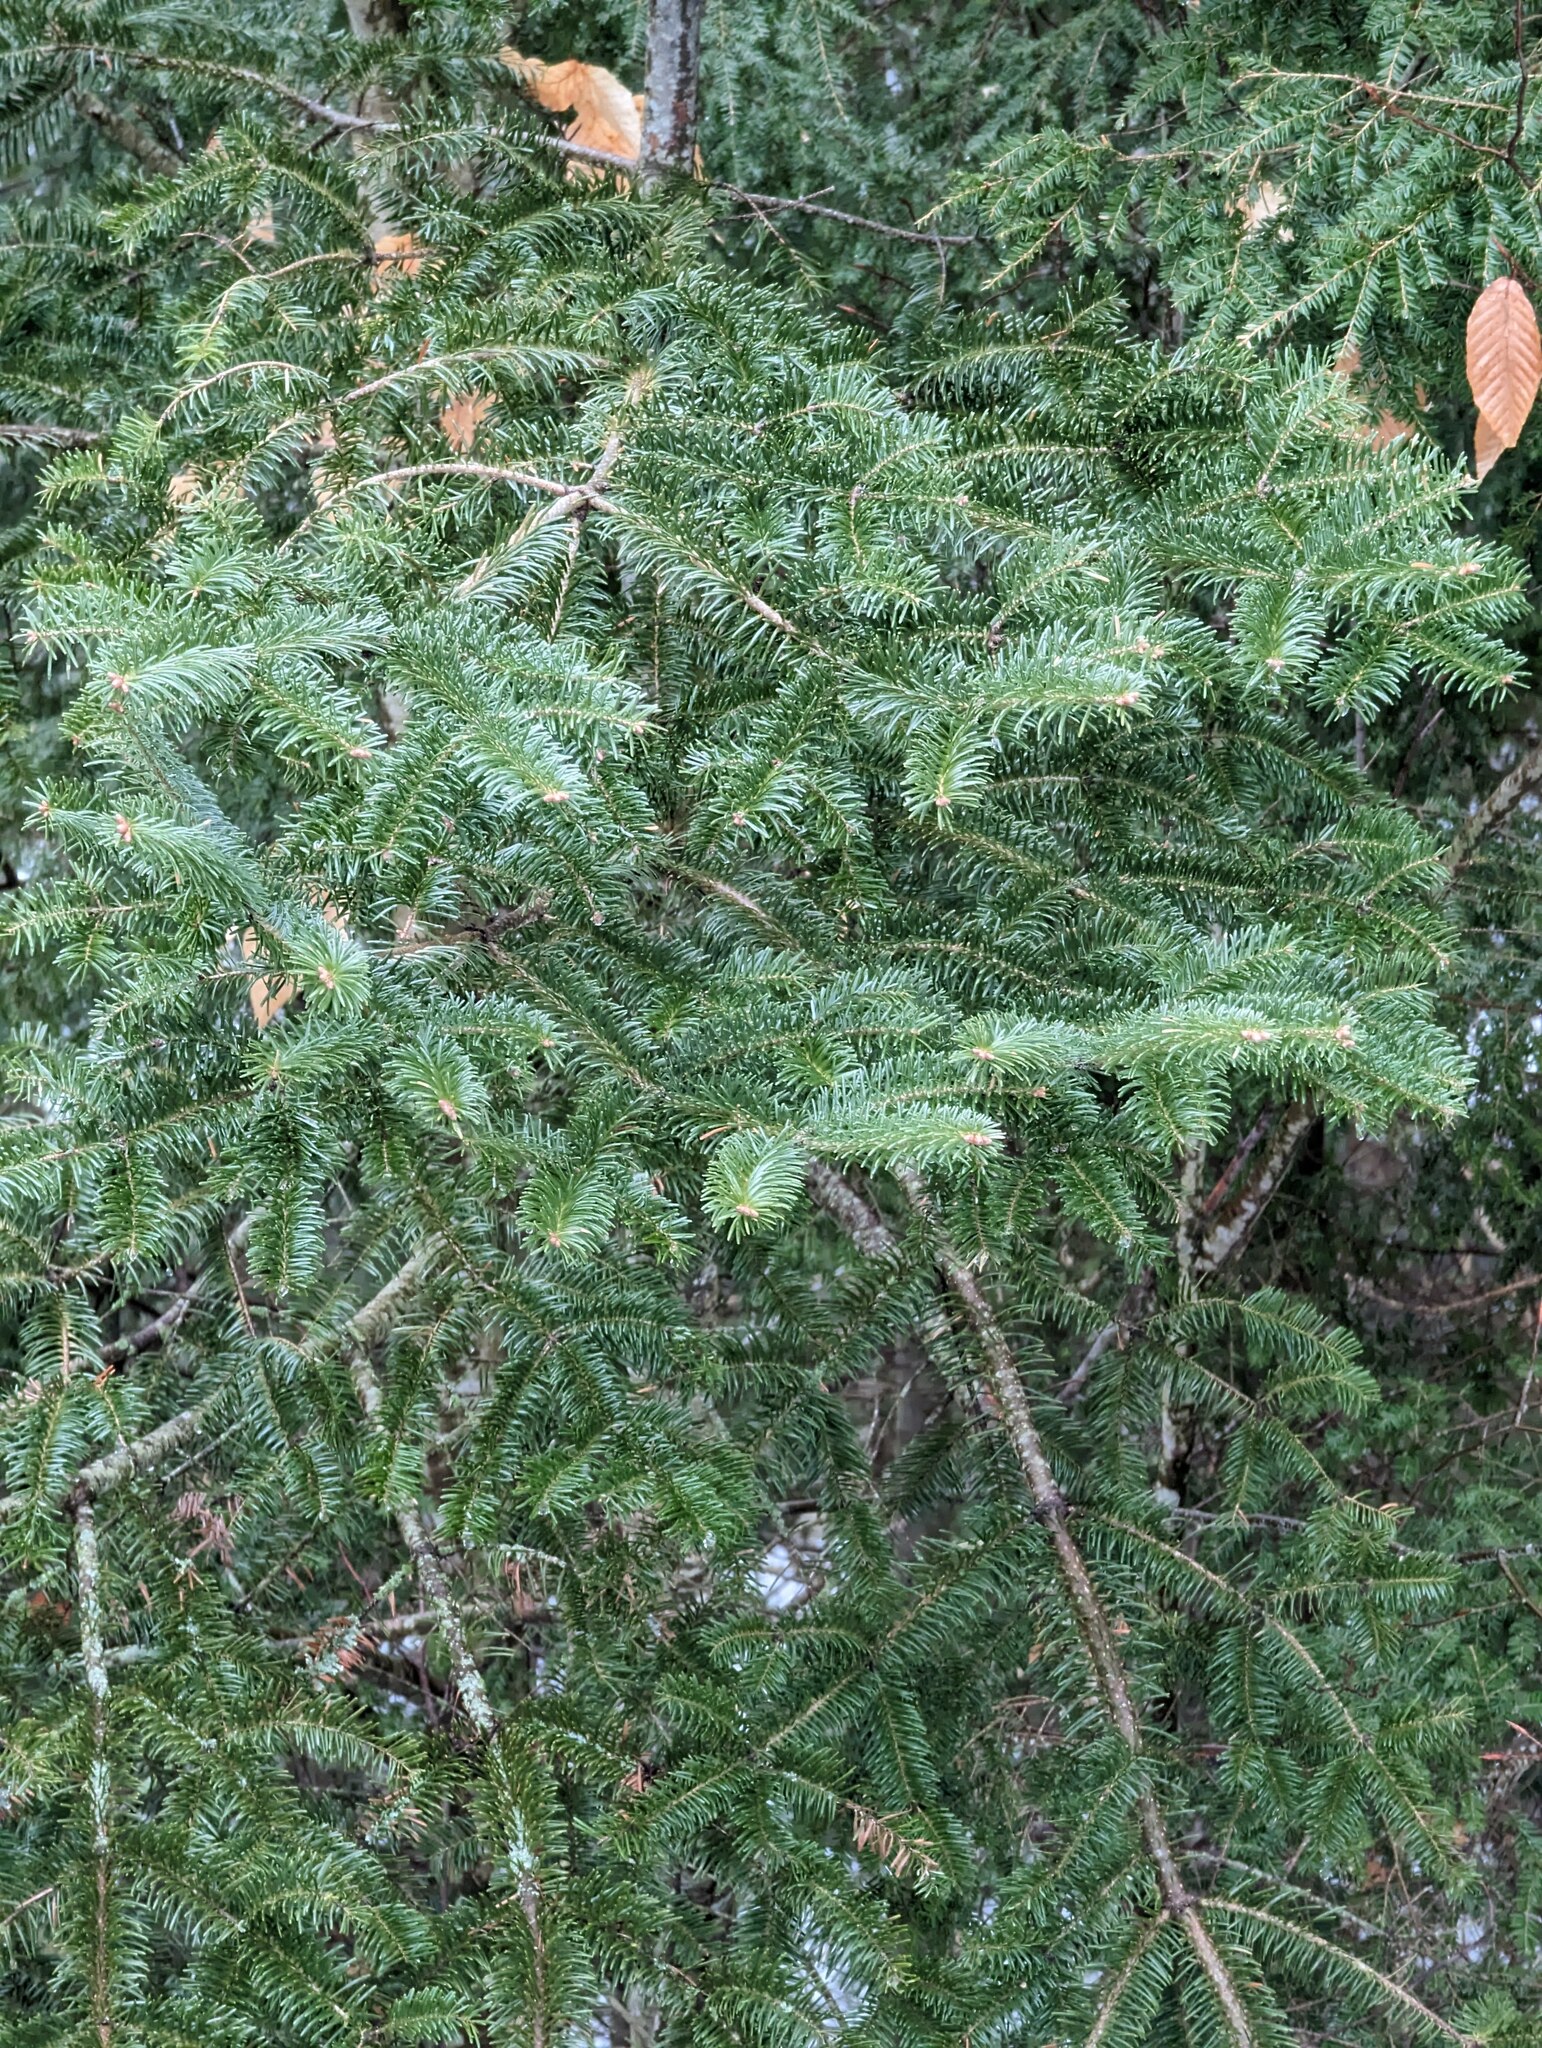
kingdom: Plantae
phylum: Tracheophyta
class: Pinopsida
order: Pinales
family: Pinaceae
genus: Abies
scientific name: Abies balsamea
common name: Balsam fir
